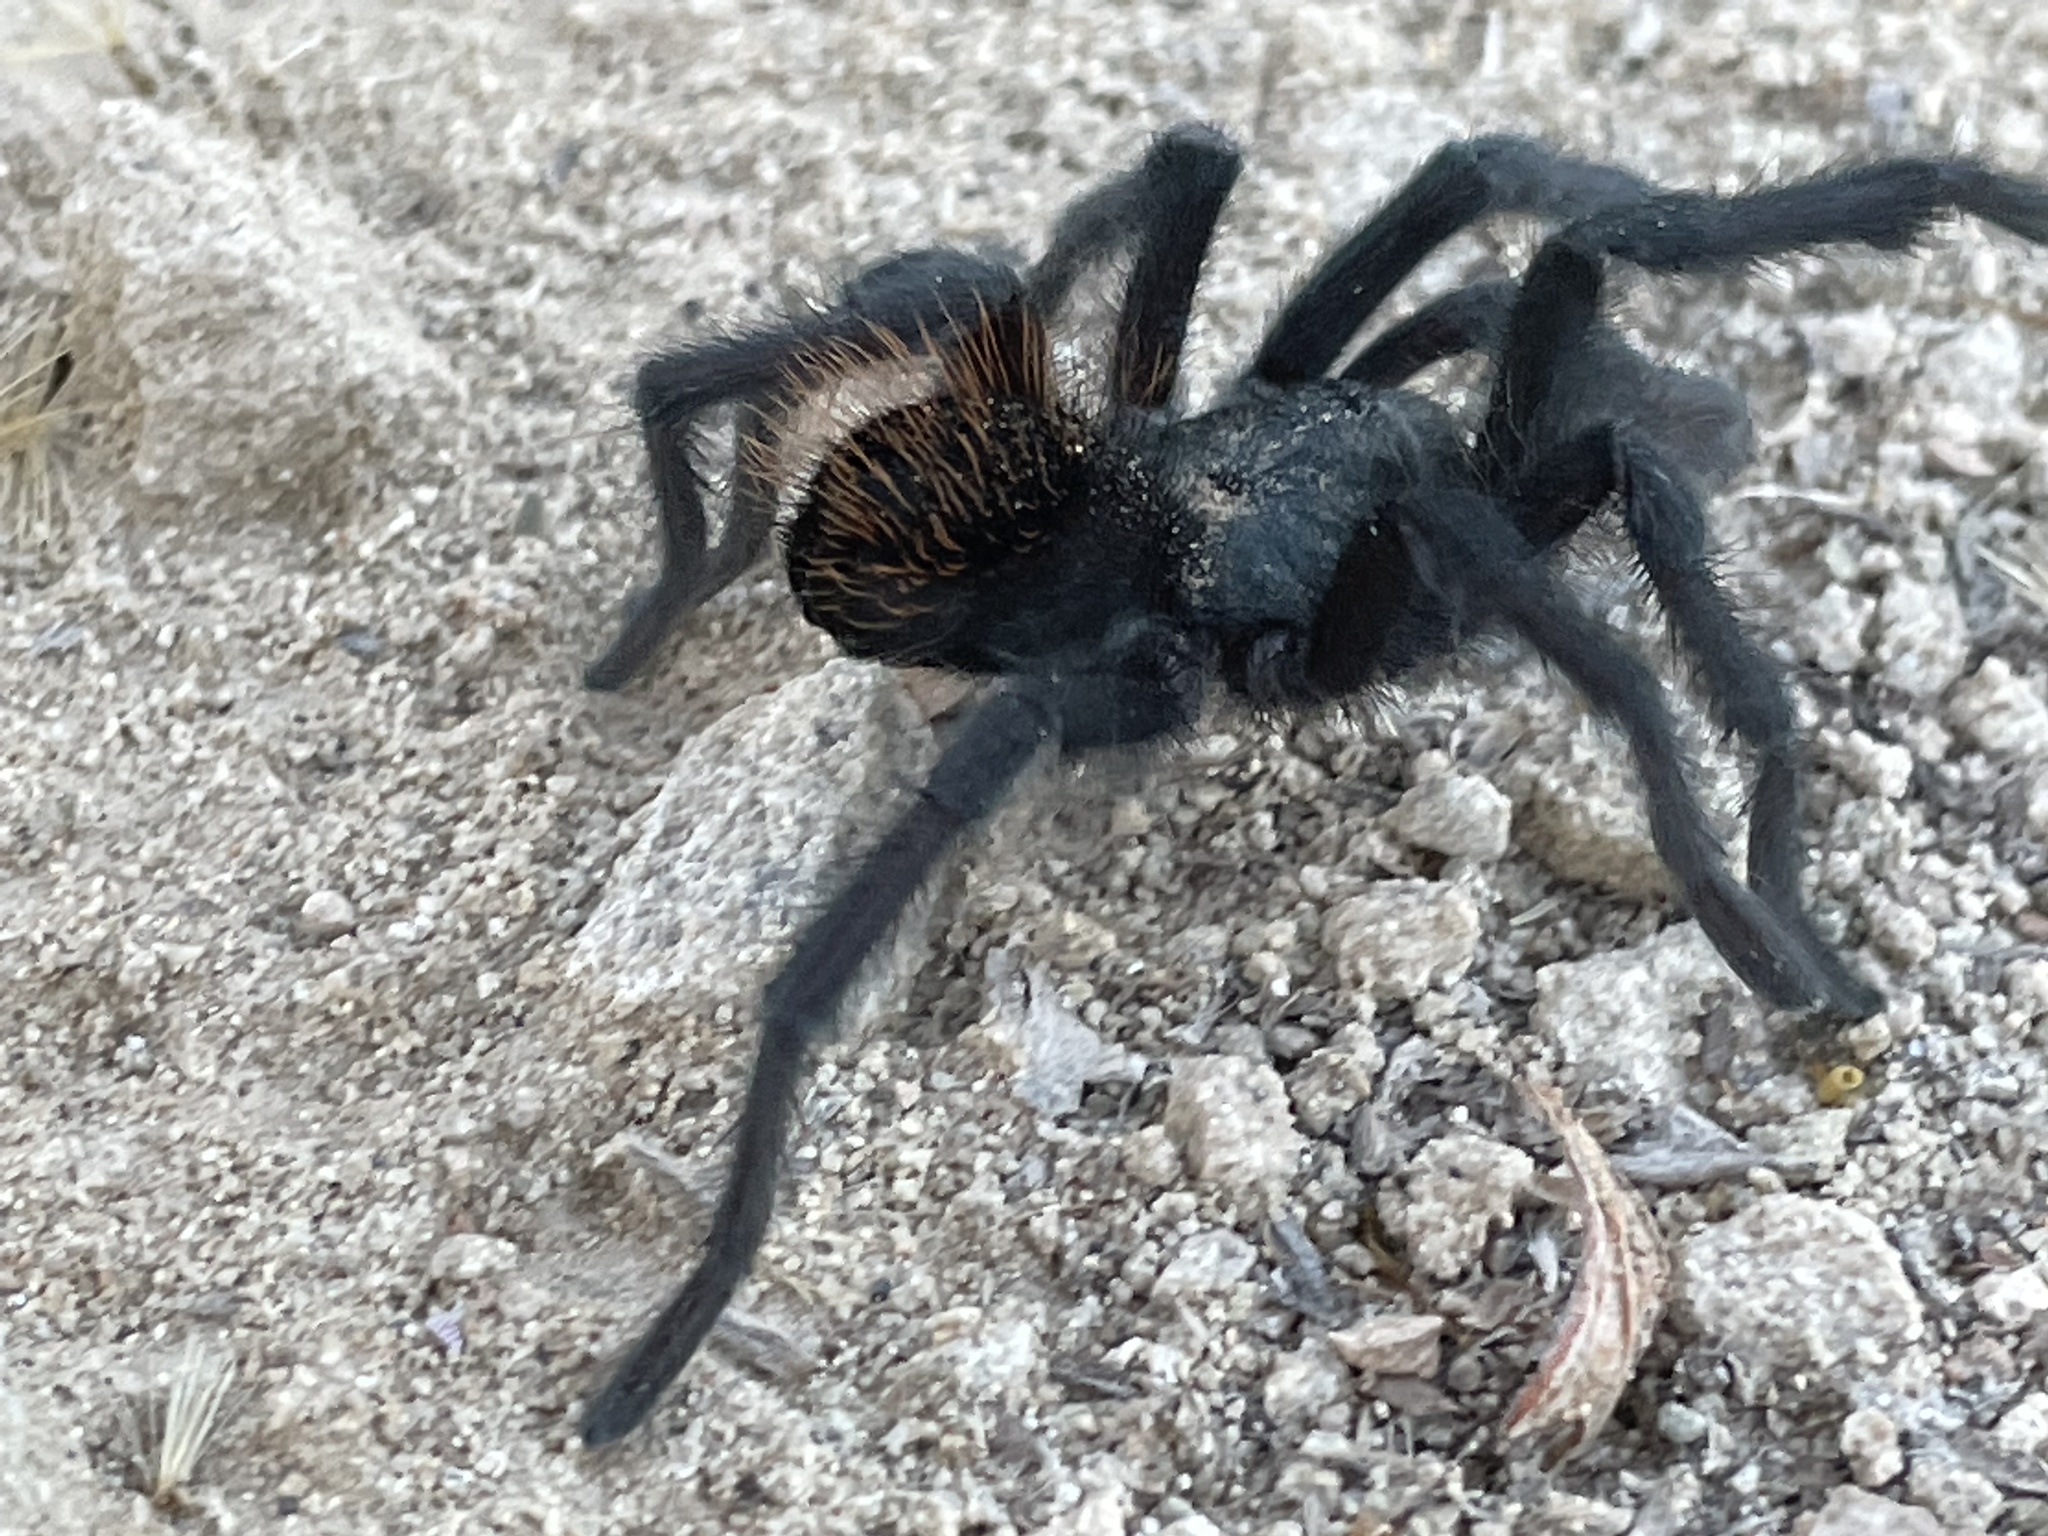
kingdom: Animalia
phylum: Arthropoda
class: Arachnida
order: Araneae
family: Theraphosidae
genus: Aphonopelma
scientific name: Aphonopelma marxi
